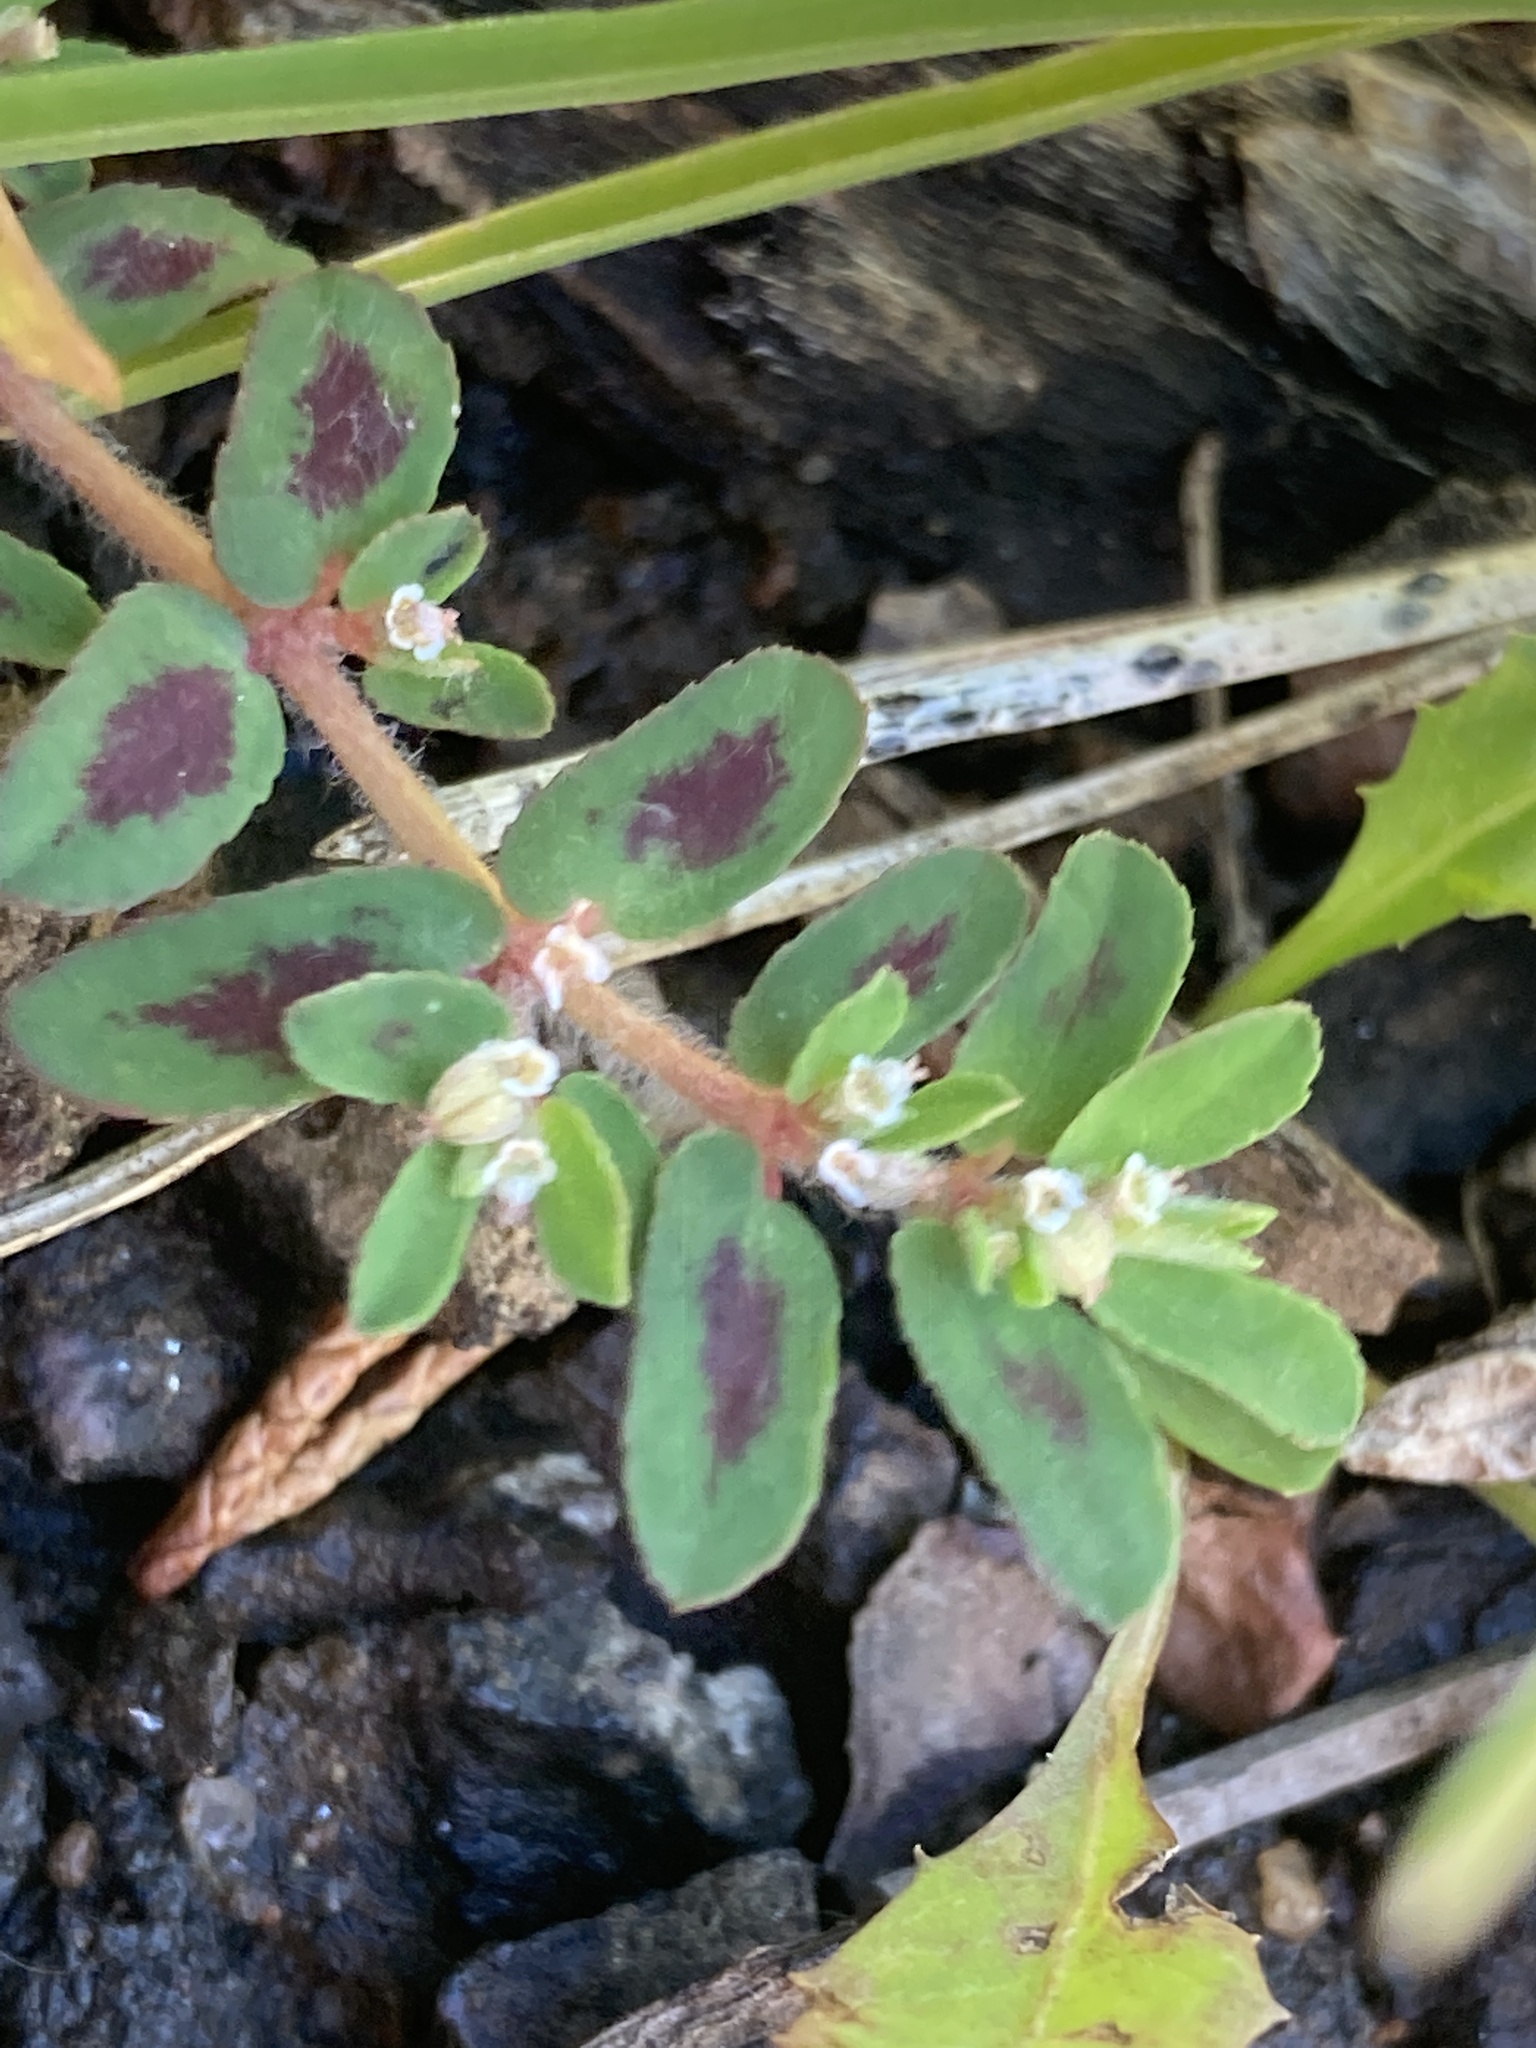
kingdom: Plantae
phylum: Tracheophyta
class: Magnoliopsida
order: Malpighiales
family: Euphorbiaceae
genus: Euphorbia
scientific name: Euphorbia maculata
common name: Spotted spurge
